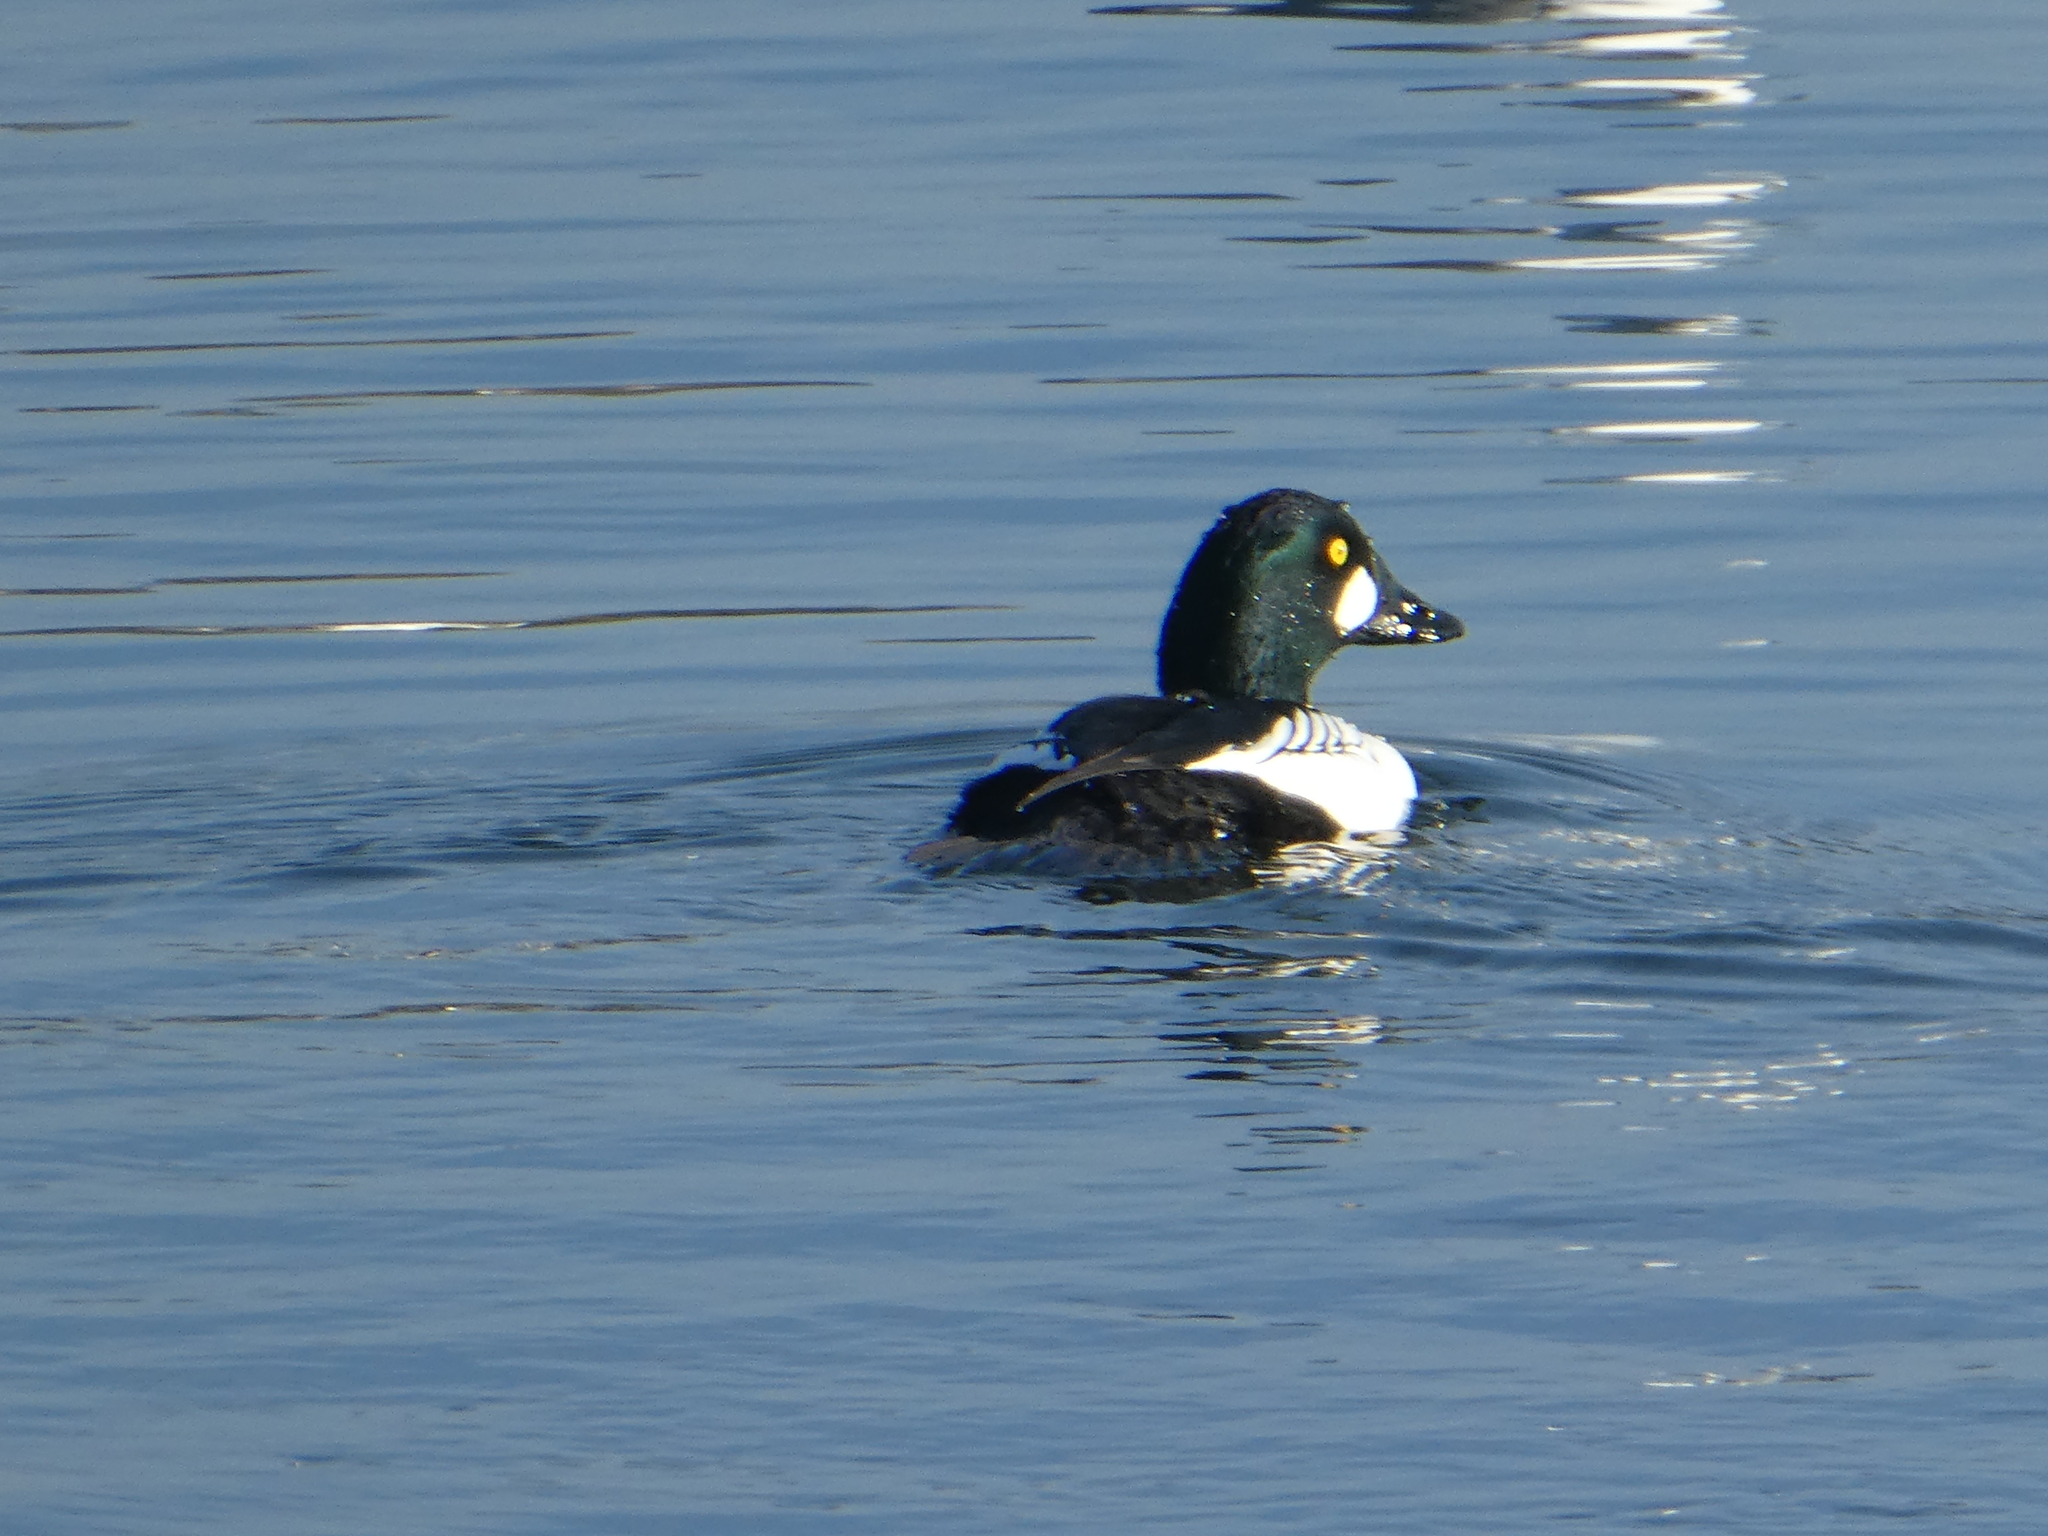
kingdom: Animalia
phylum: Chordata
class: Aves
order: Anseriformes
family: Anatidae
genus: Bucephala
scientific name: Bucephala clangula
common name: Common goldeneye
